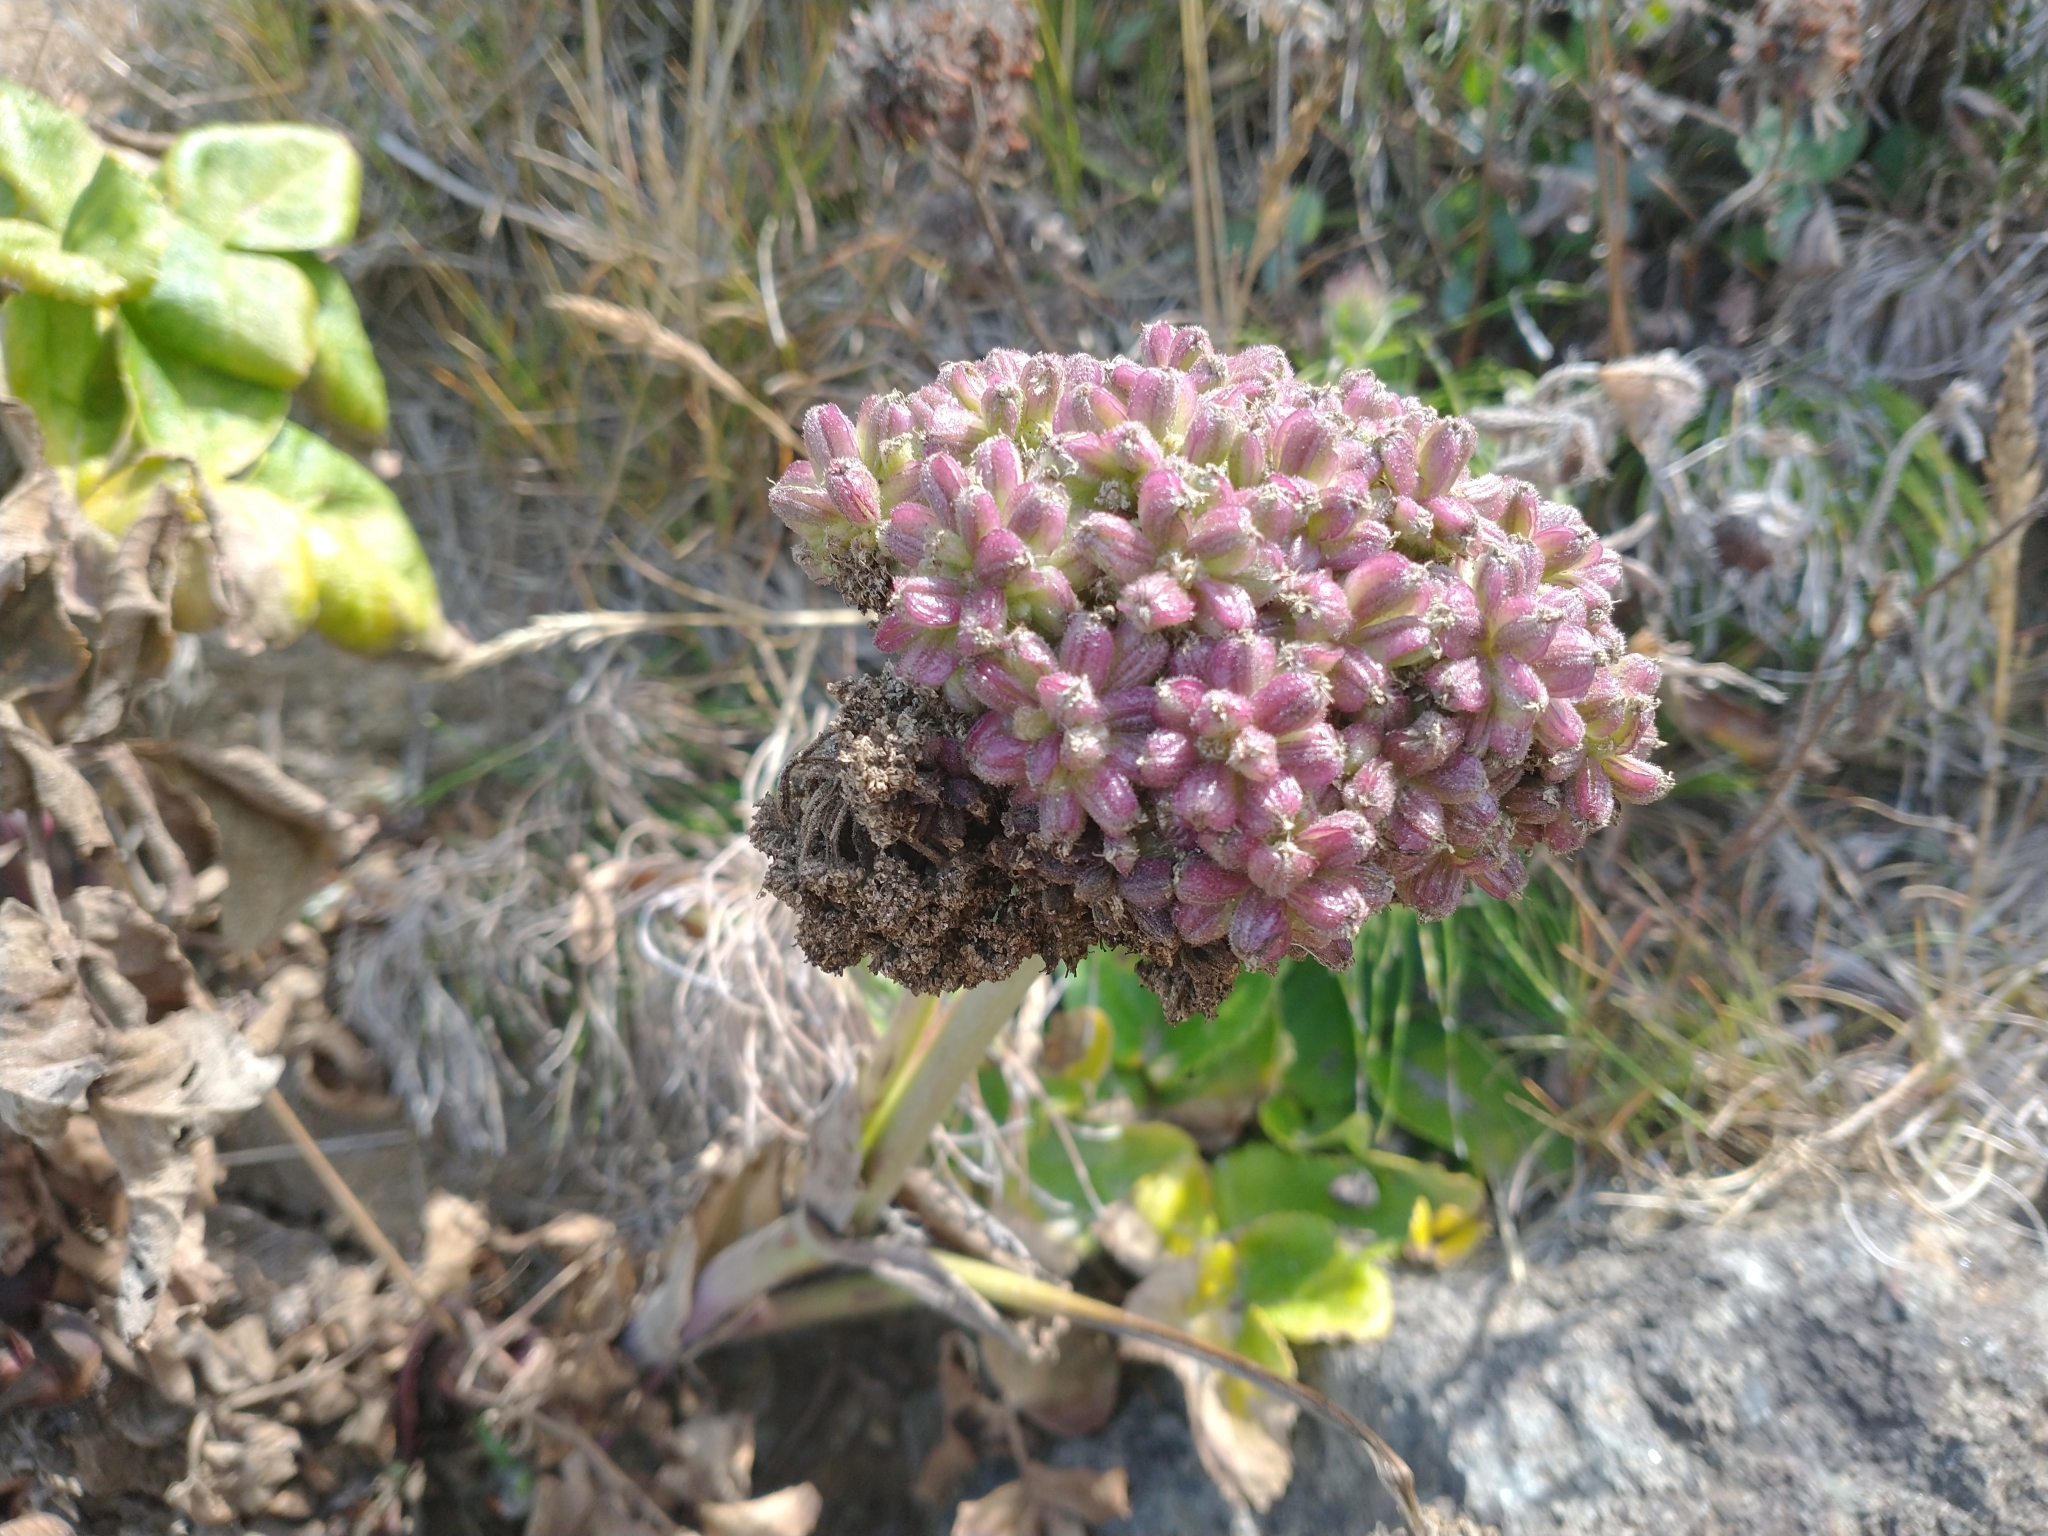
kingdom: Plantae
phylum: Tracheophyta
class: Magnoliopsida
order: Apiales
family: Apiaceae
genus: Angelica
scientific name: Angelica hendersonii
